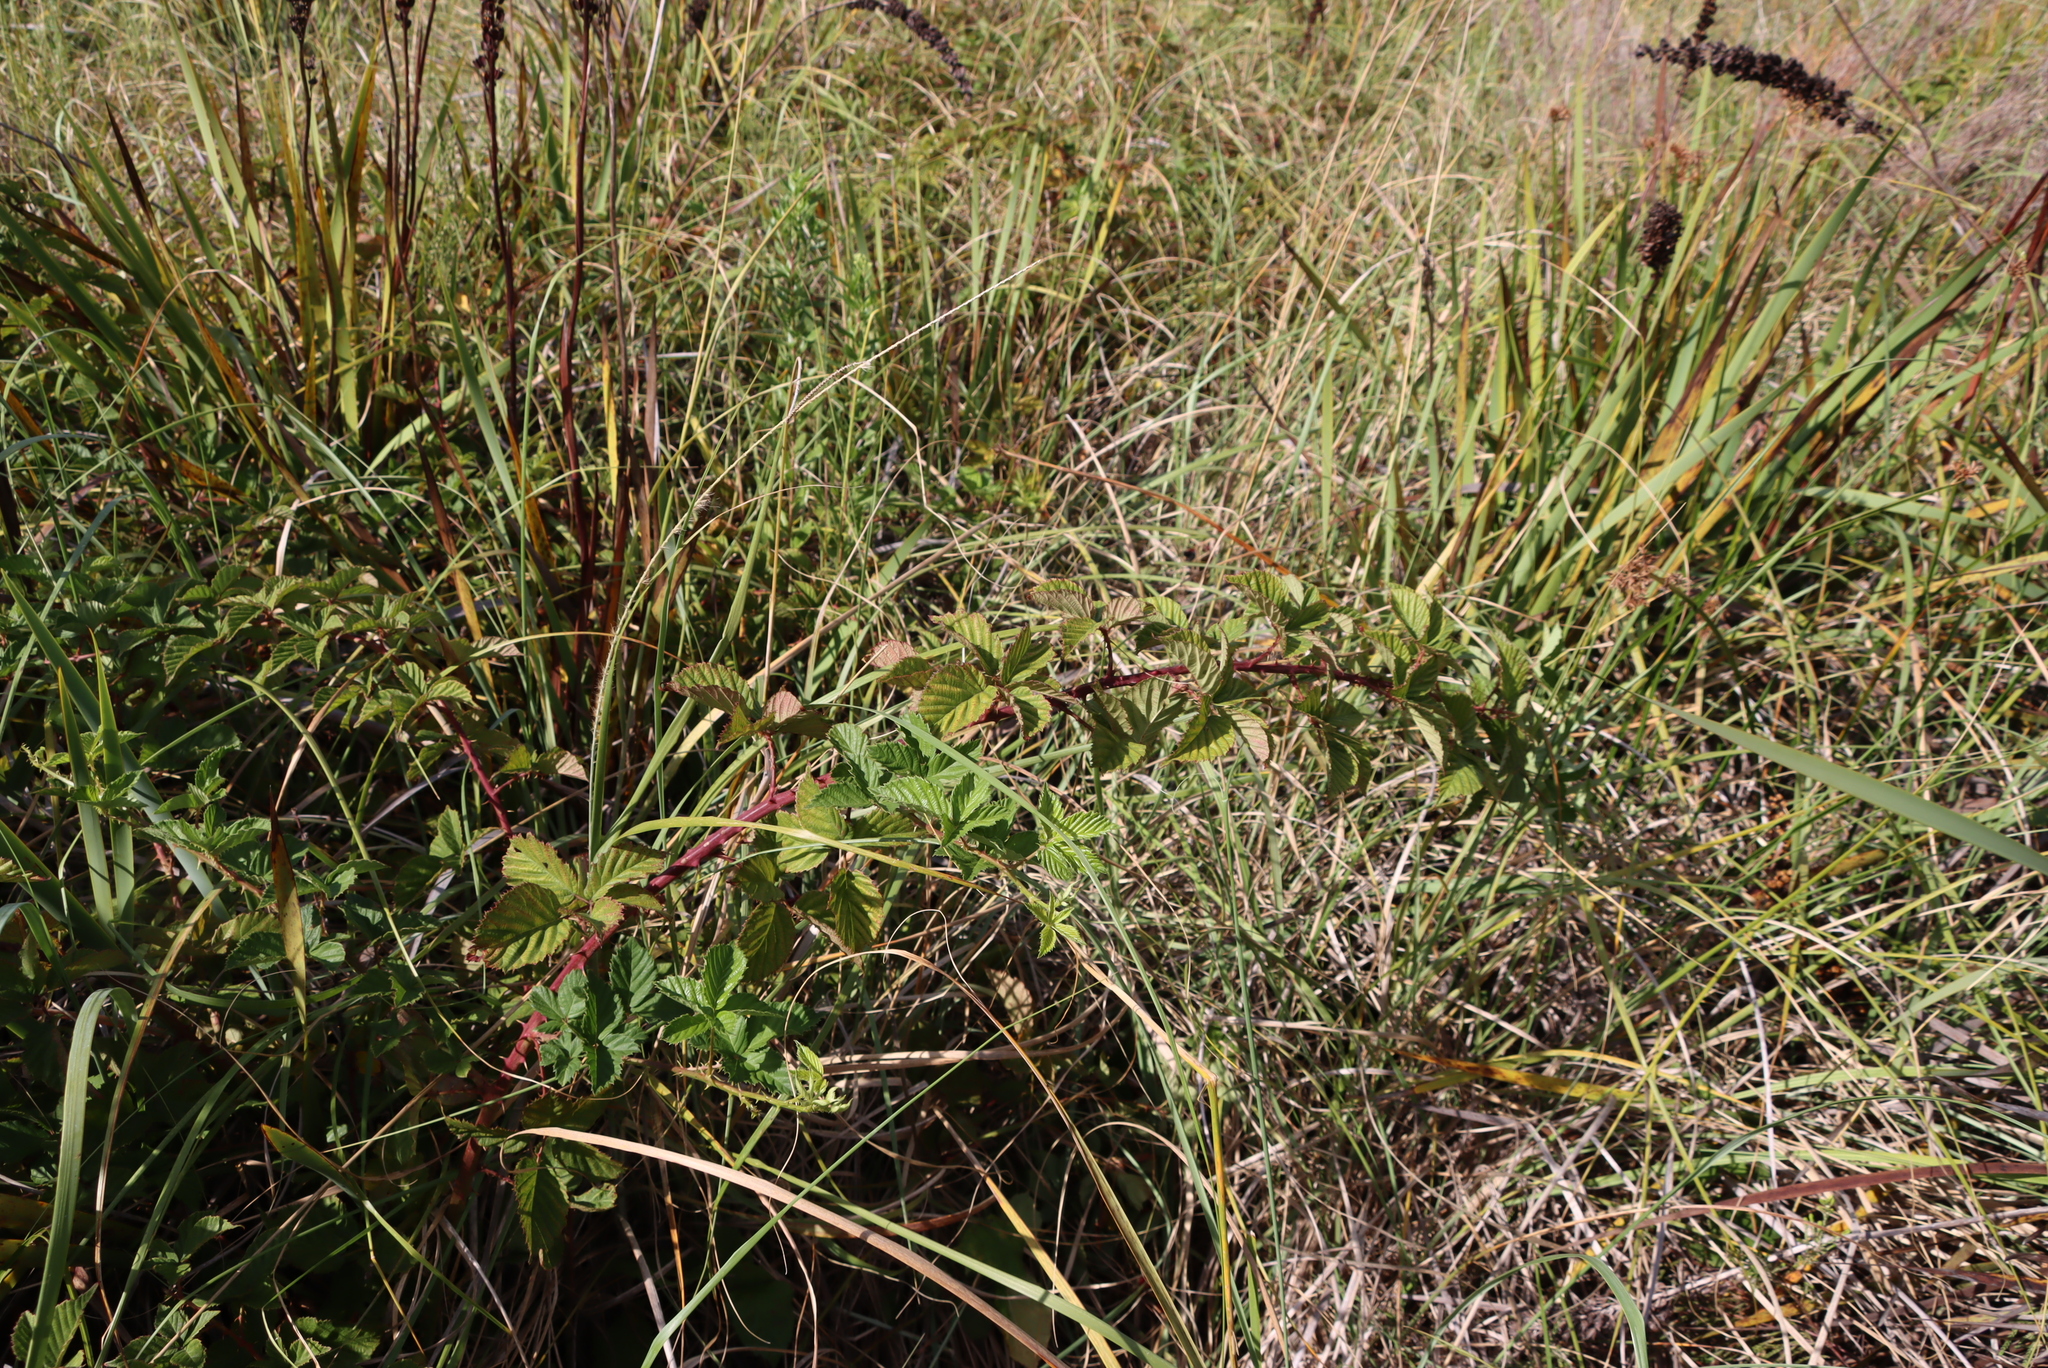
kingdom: Plantae
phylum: Tracheophyta
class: Magnoliopsida
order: Rosales
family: Rosaceae
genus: Rubus
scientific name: Rubus affinis
